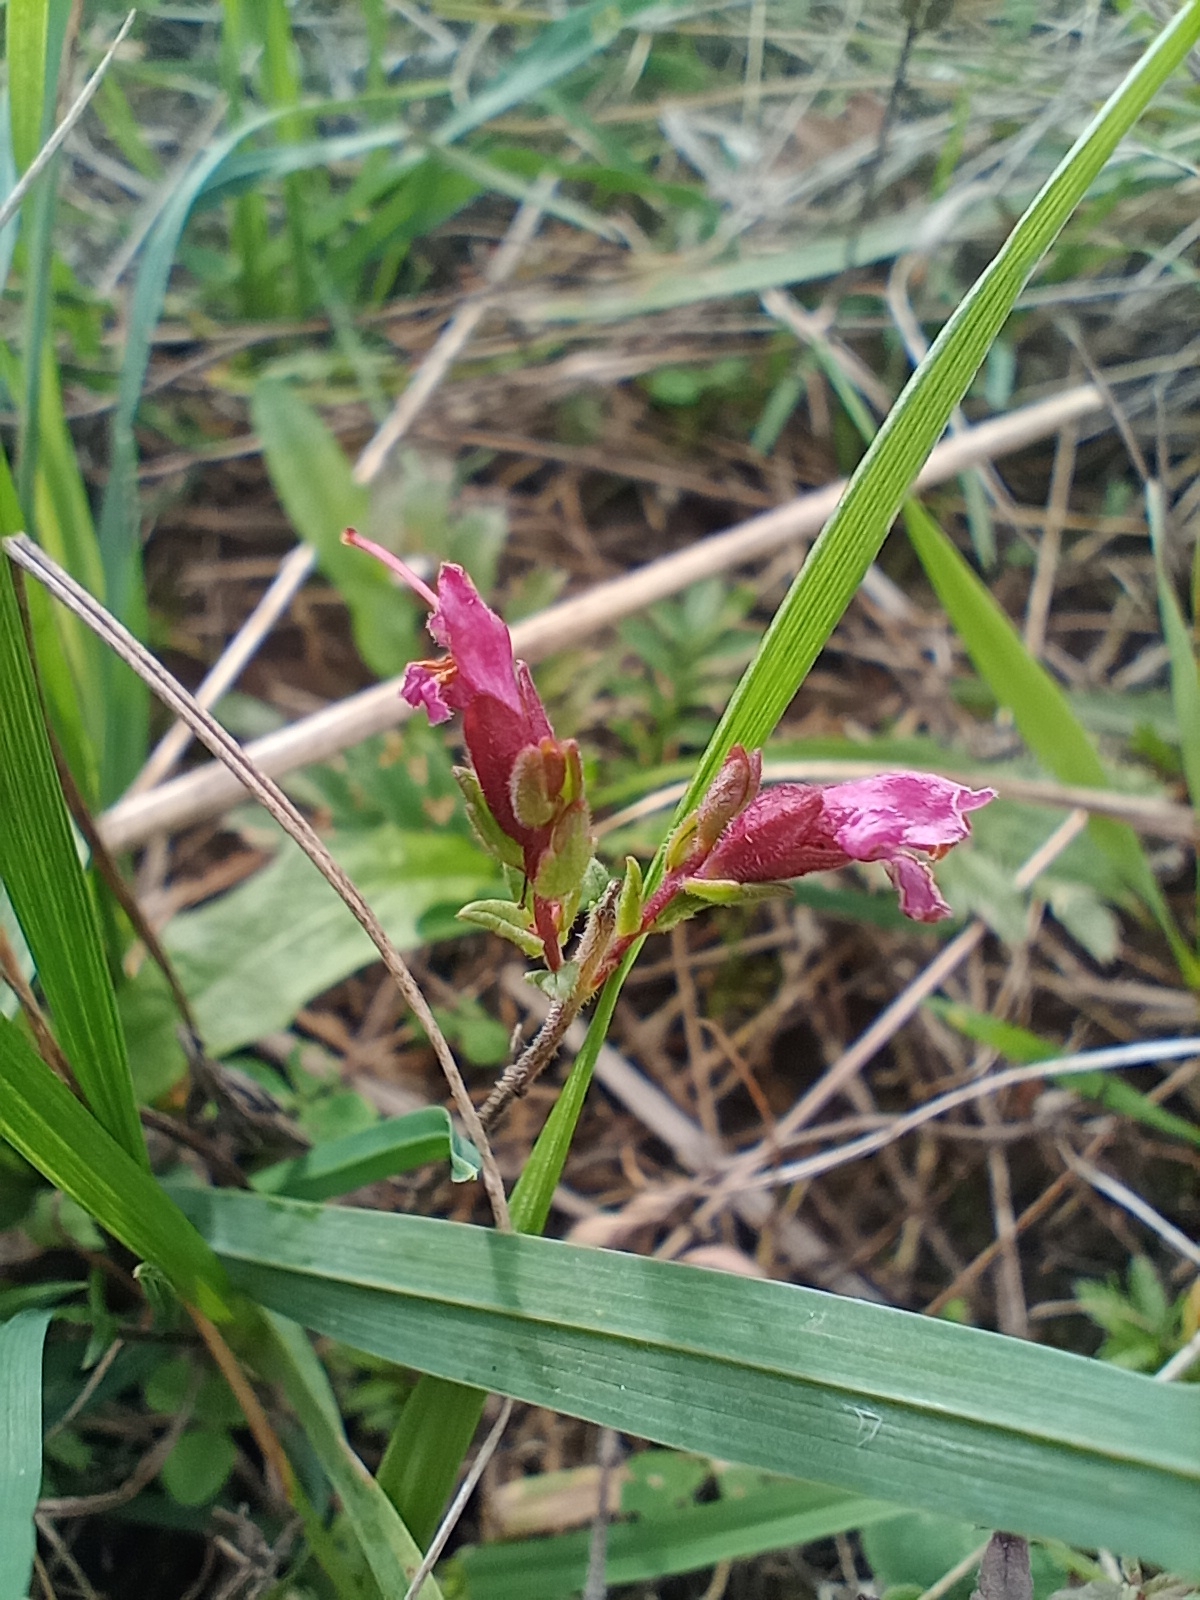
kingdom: Plantae
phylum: Tracheophyta
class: Magnoliopsida
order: Lamiales
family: Orobanchaceae
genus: Odontites
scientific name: Odontites vulgaris
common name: Broomrape
